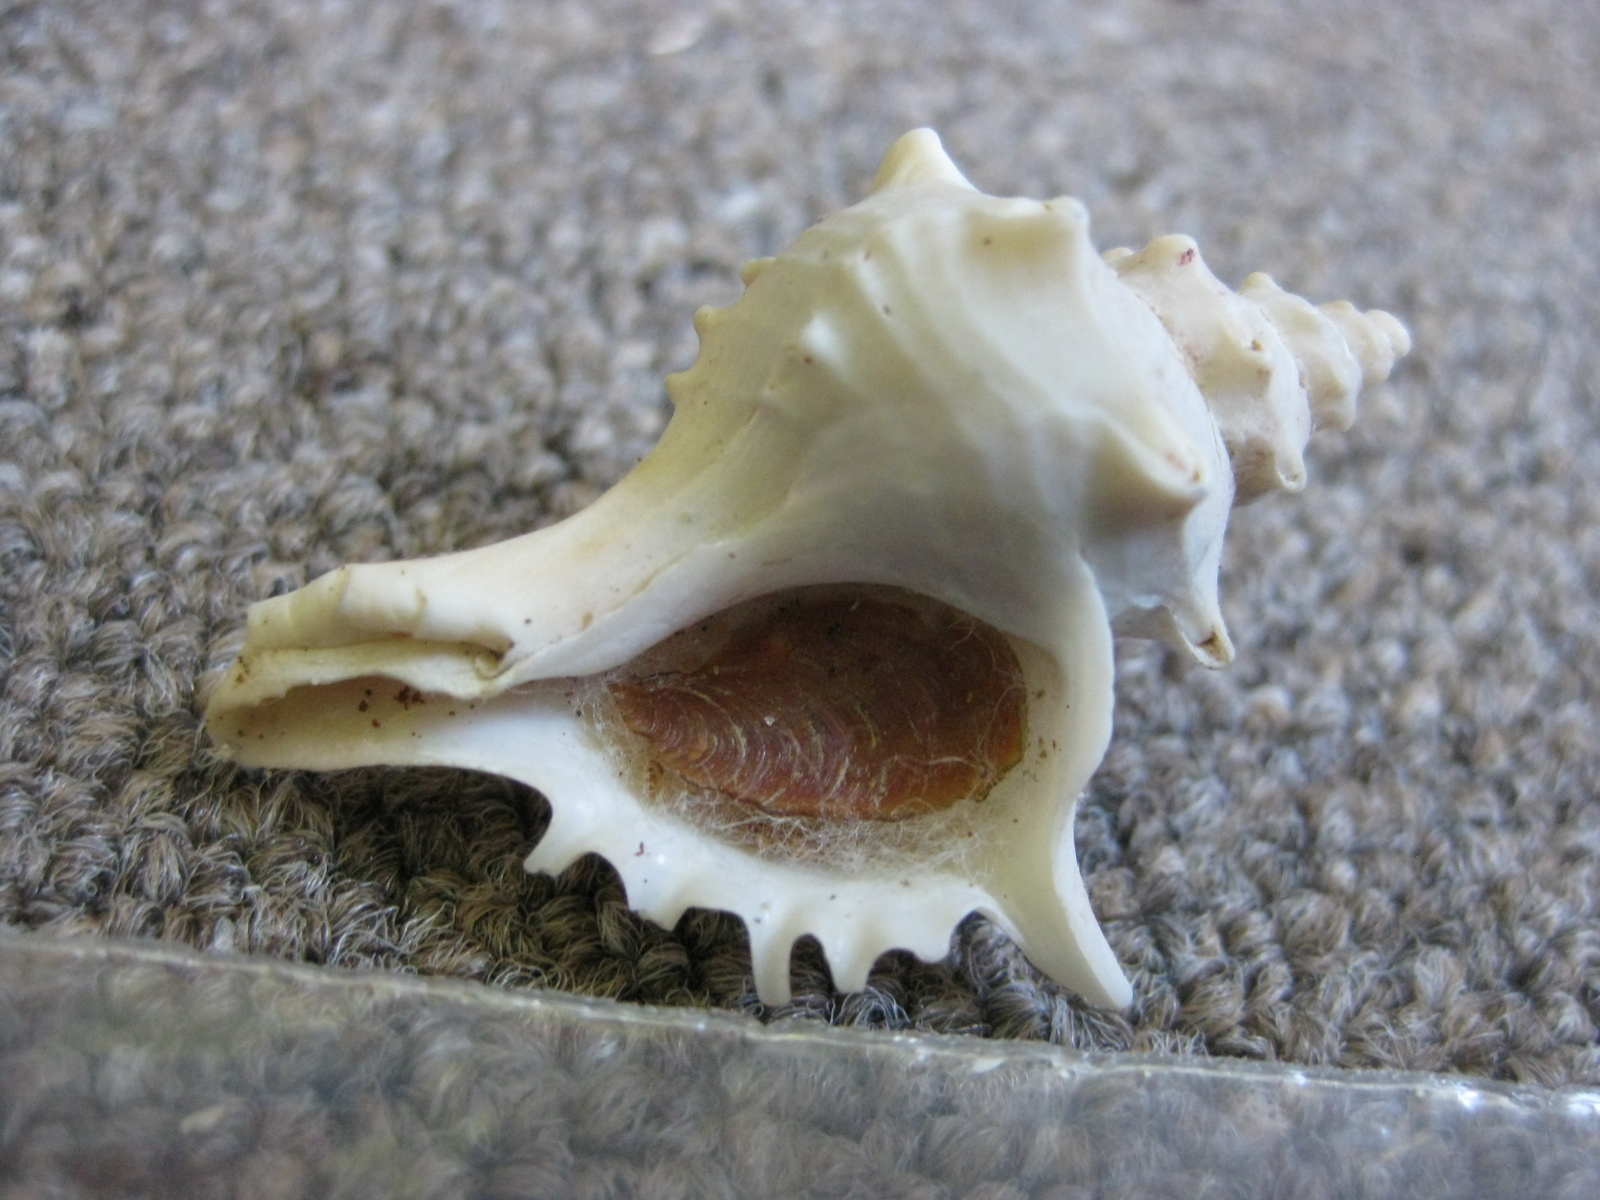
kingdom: Animalia
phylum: Mollusca
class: Gastropoda
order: Neogastropoda
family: Muricidae
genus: Poirieria
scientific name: Poirieria zelandica
